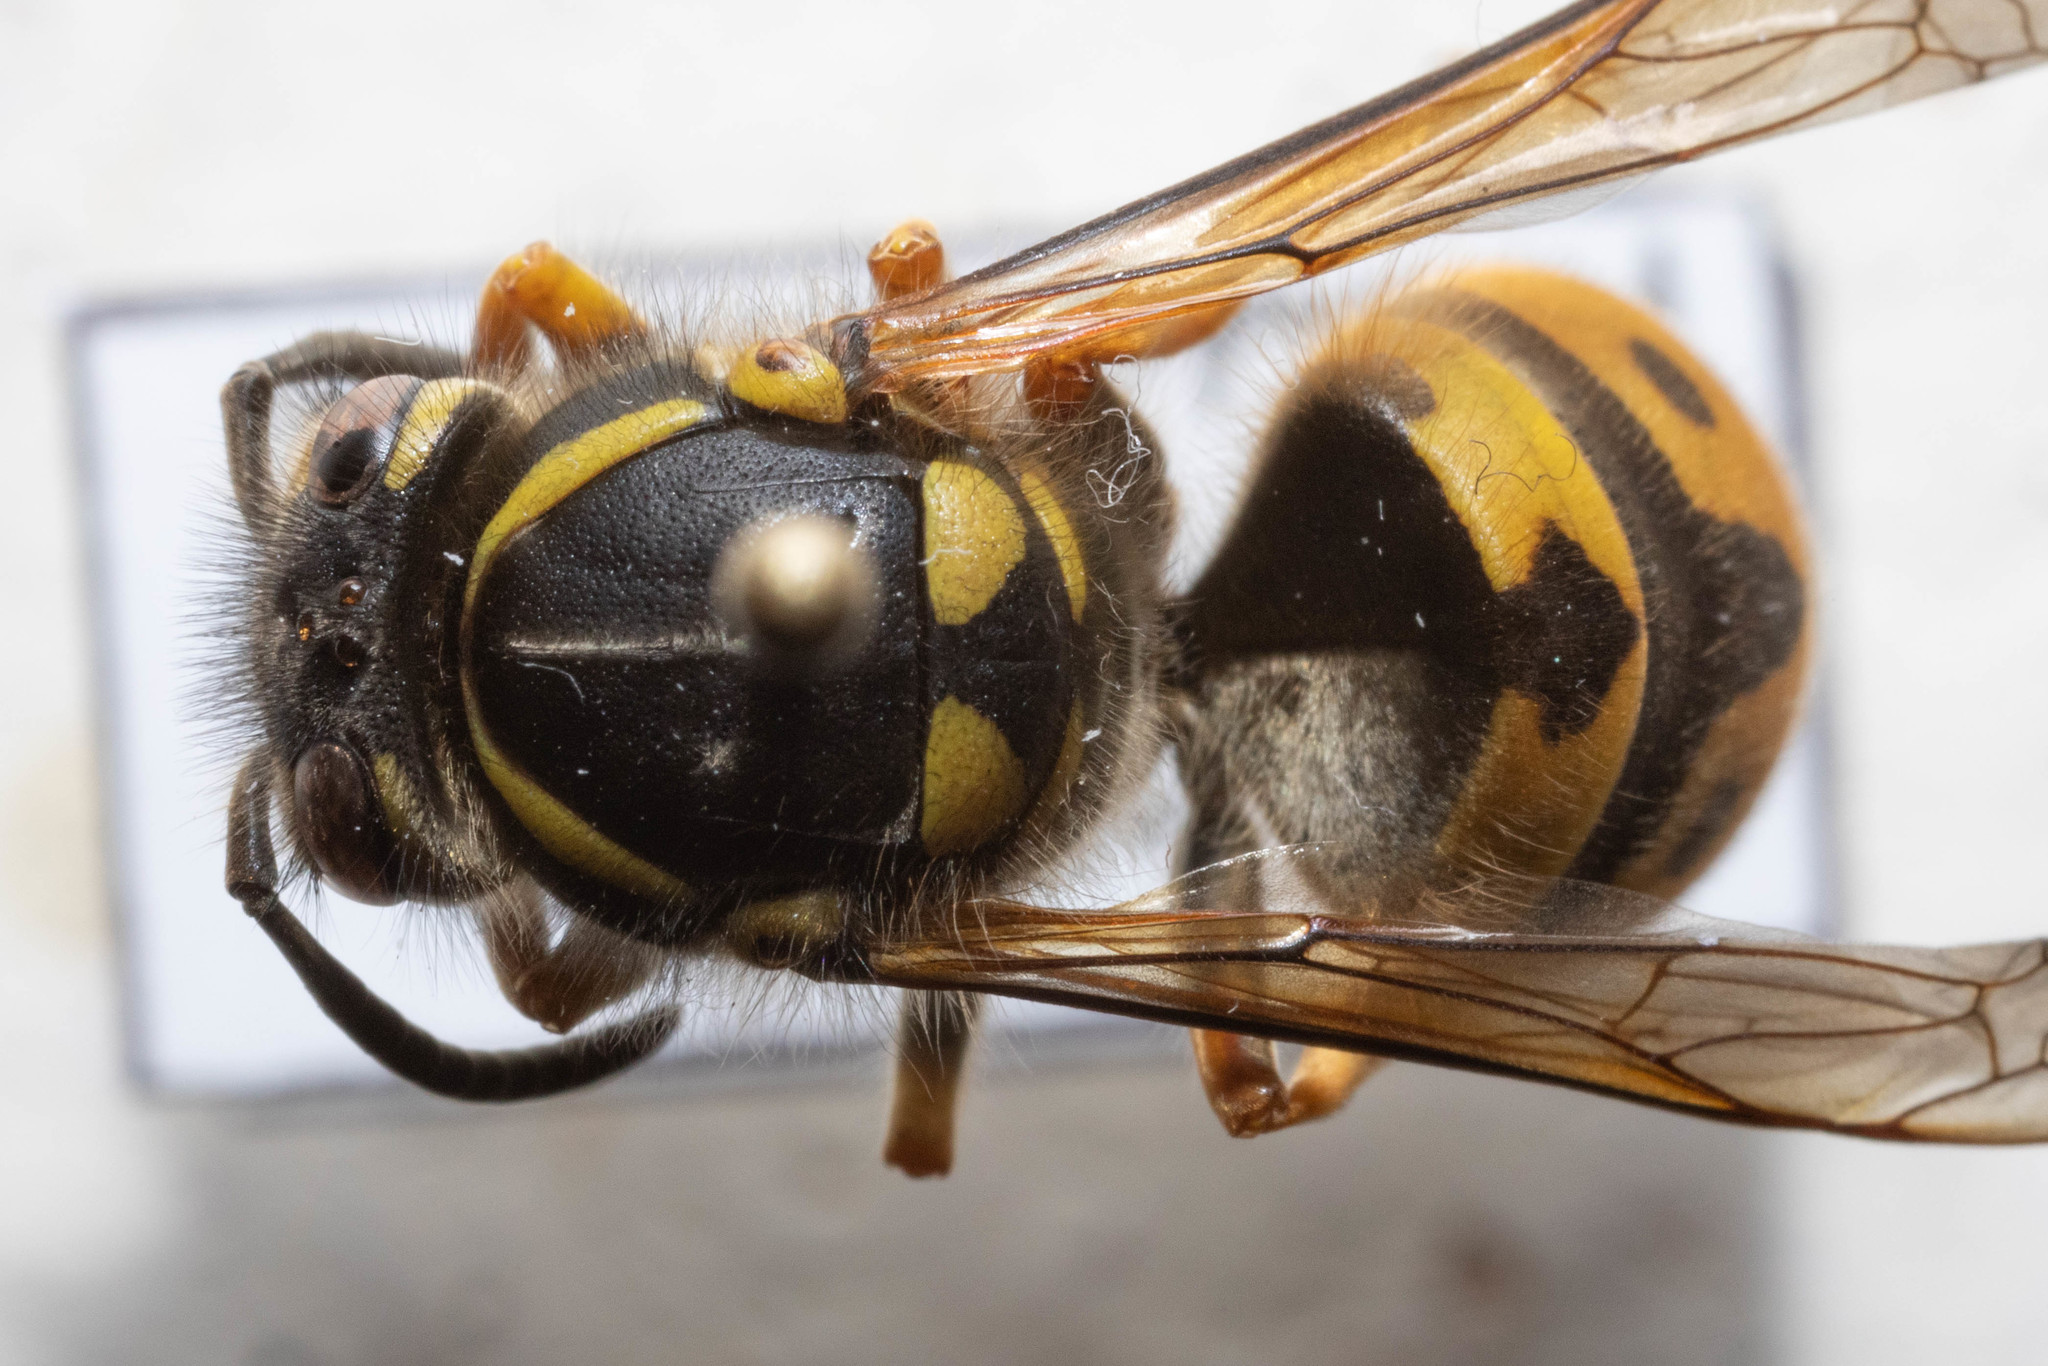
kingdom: Animalia
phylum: Arthropoda
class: Insecta
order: Hymenoptera
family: Vespidae
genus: Vespula
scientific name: Vespula germanica
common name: German wasp
